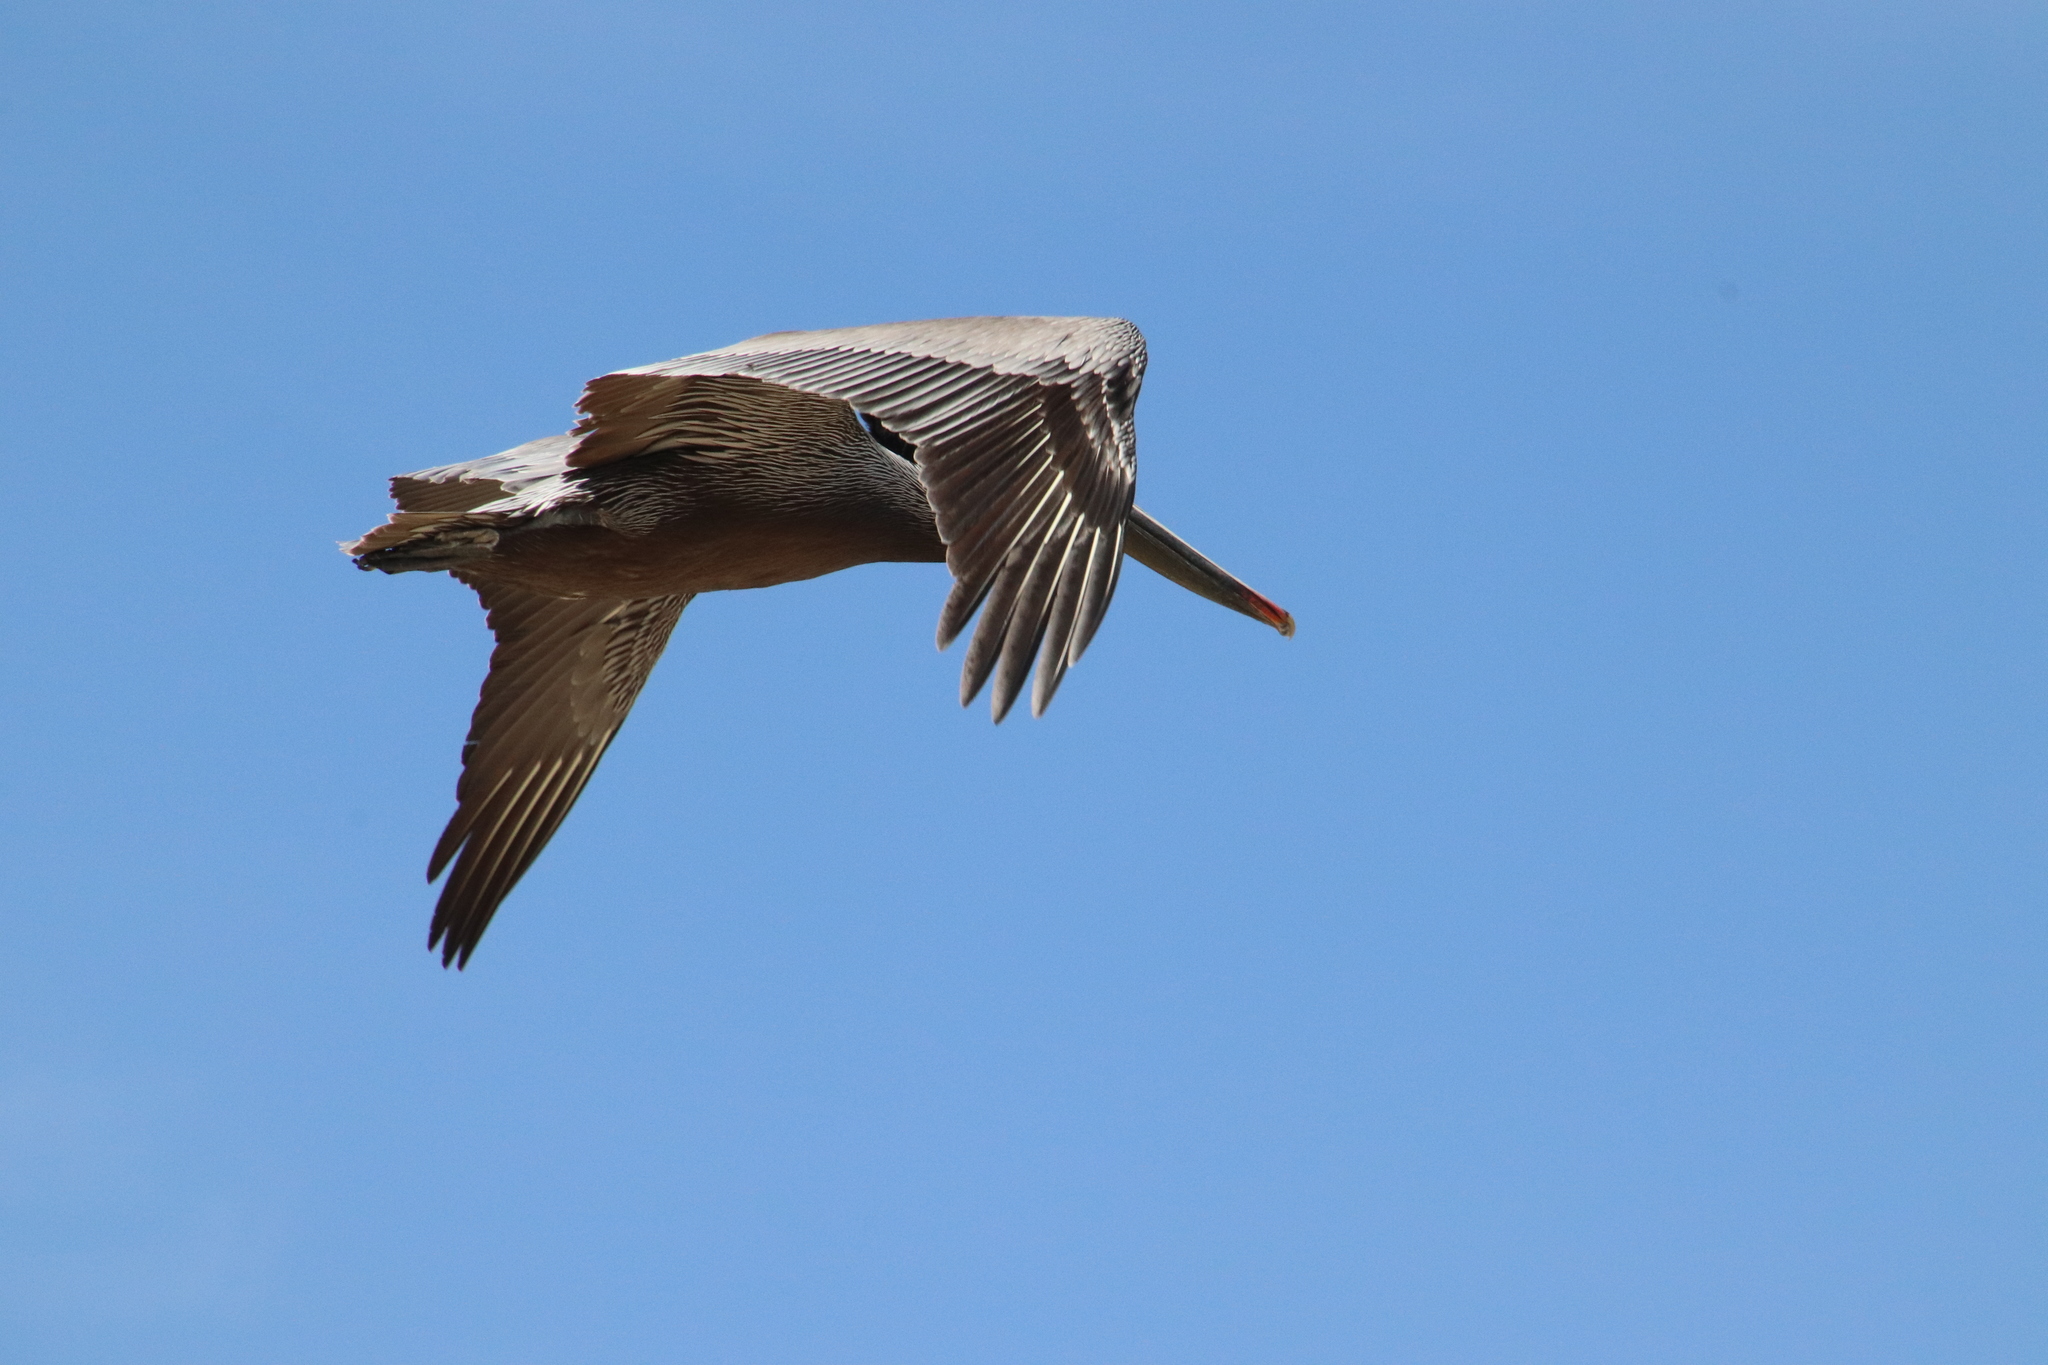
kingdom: Animalia
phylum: Chordata
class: Aves
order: Pelecaniformes
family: Pelecanidae
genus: Pelecanus
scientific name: Pelecanus occidentalis
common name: Brown pelican
